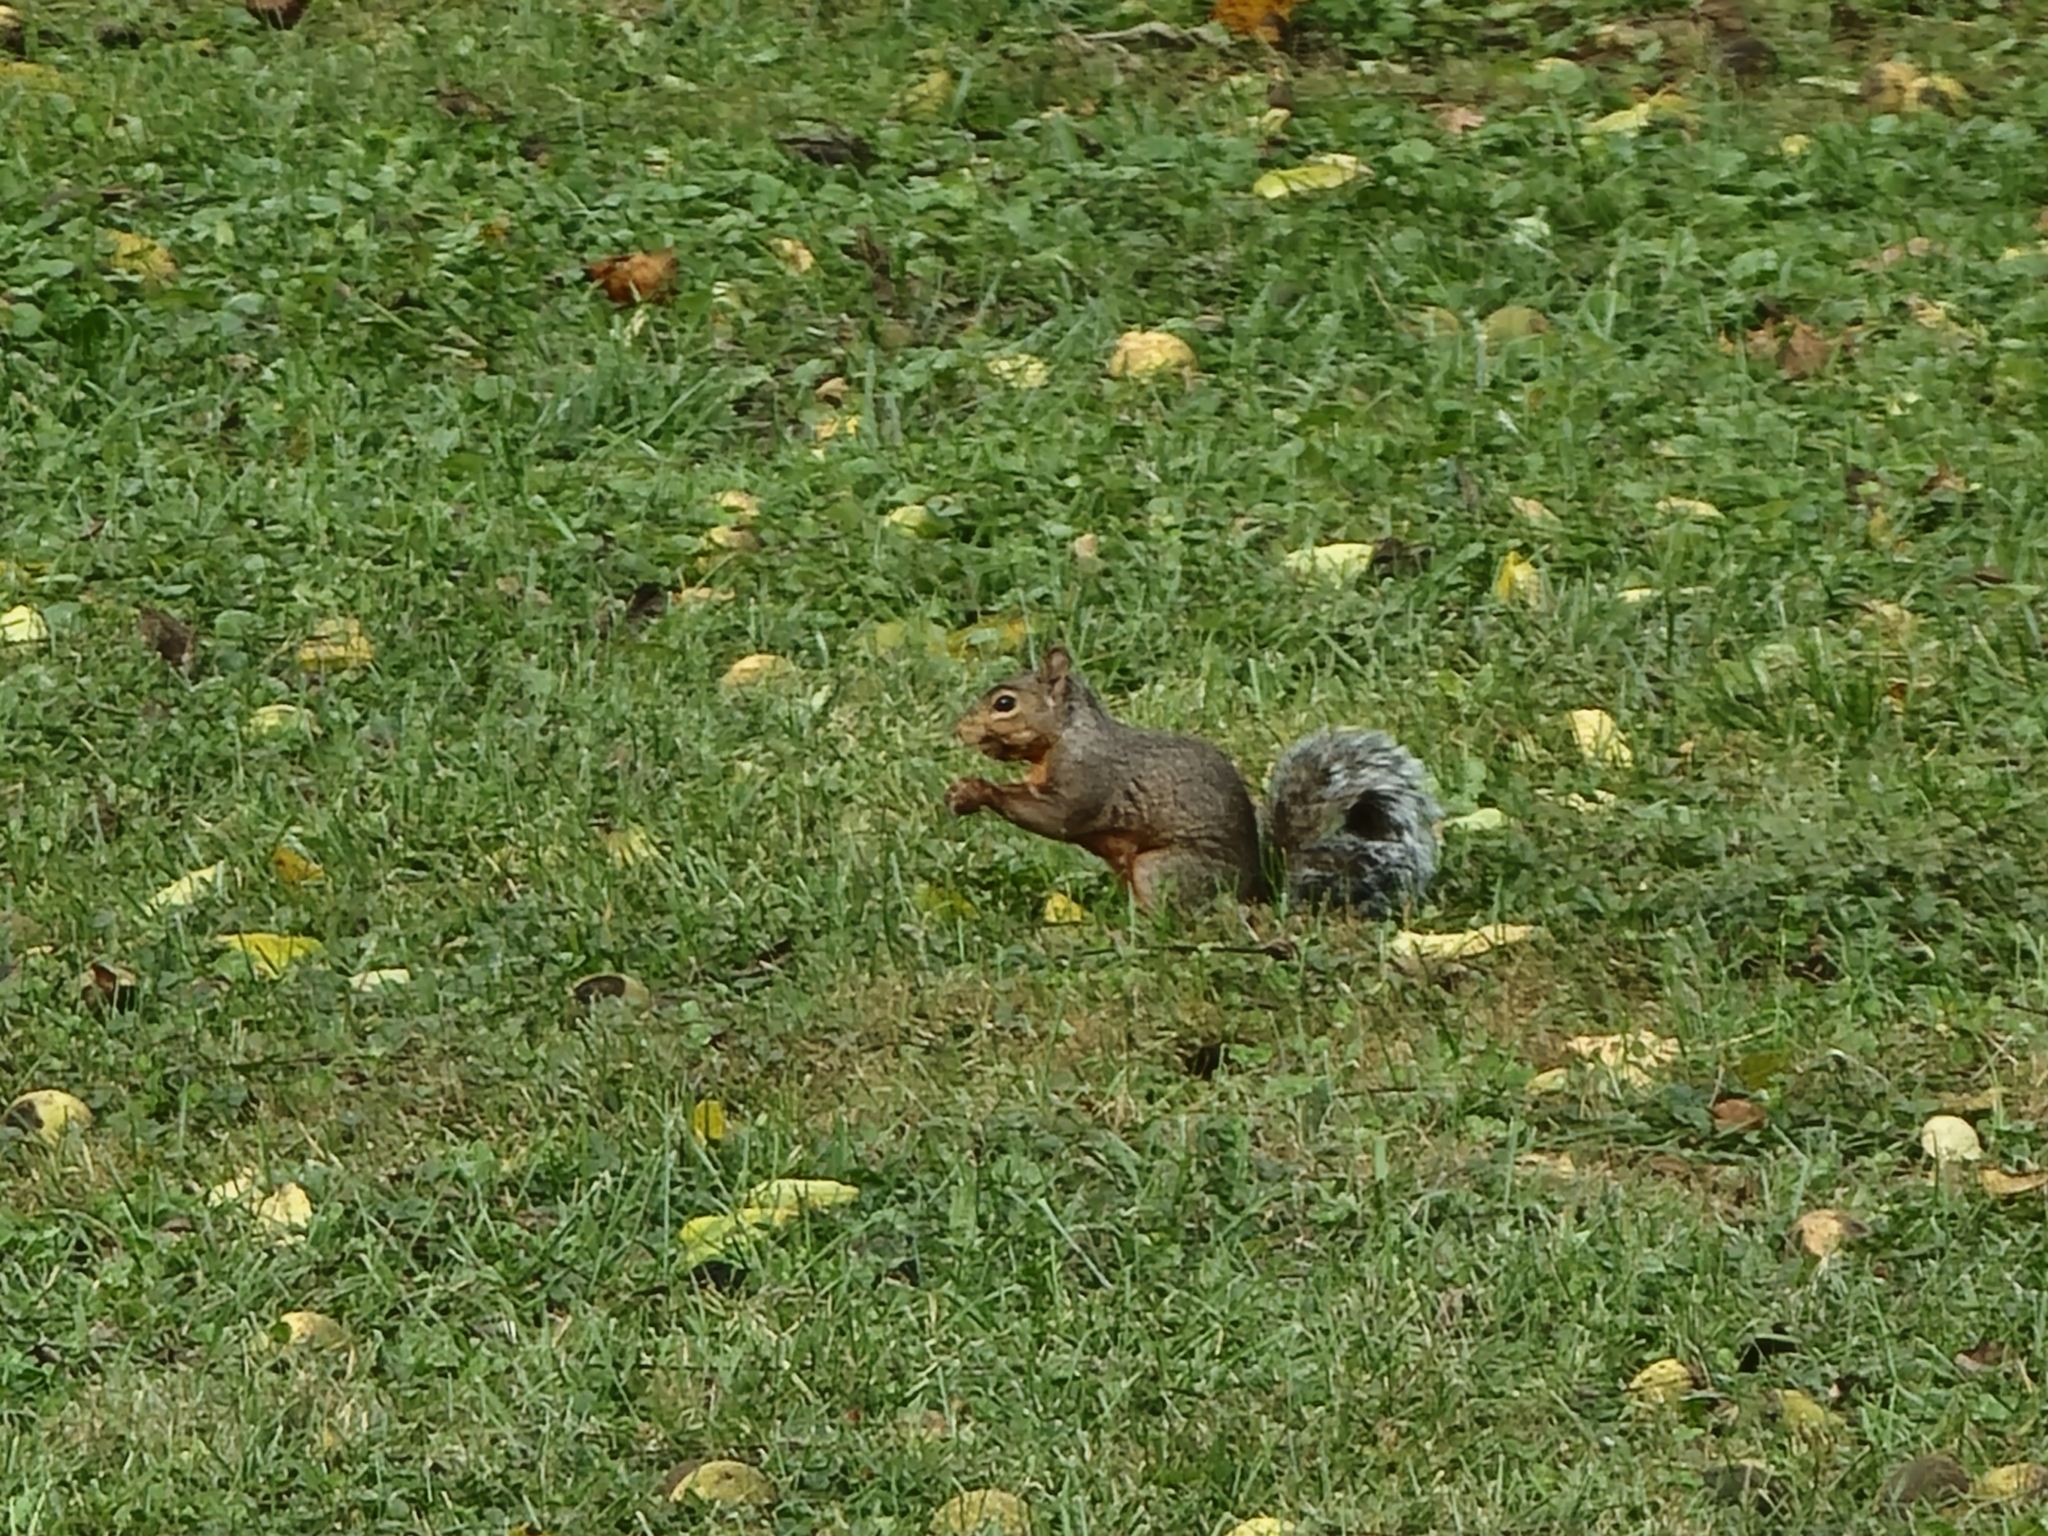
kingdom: Animalia
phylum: Chordata
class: Mammalia
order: Rodentia
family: Sciuridae
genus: Sciurus
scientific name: Sciurus carolinensis
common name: Eastern gray squirrel
